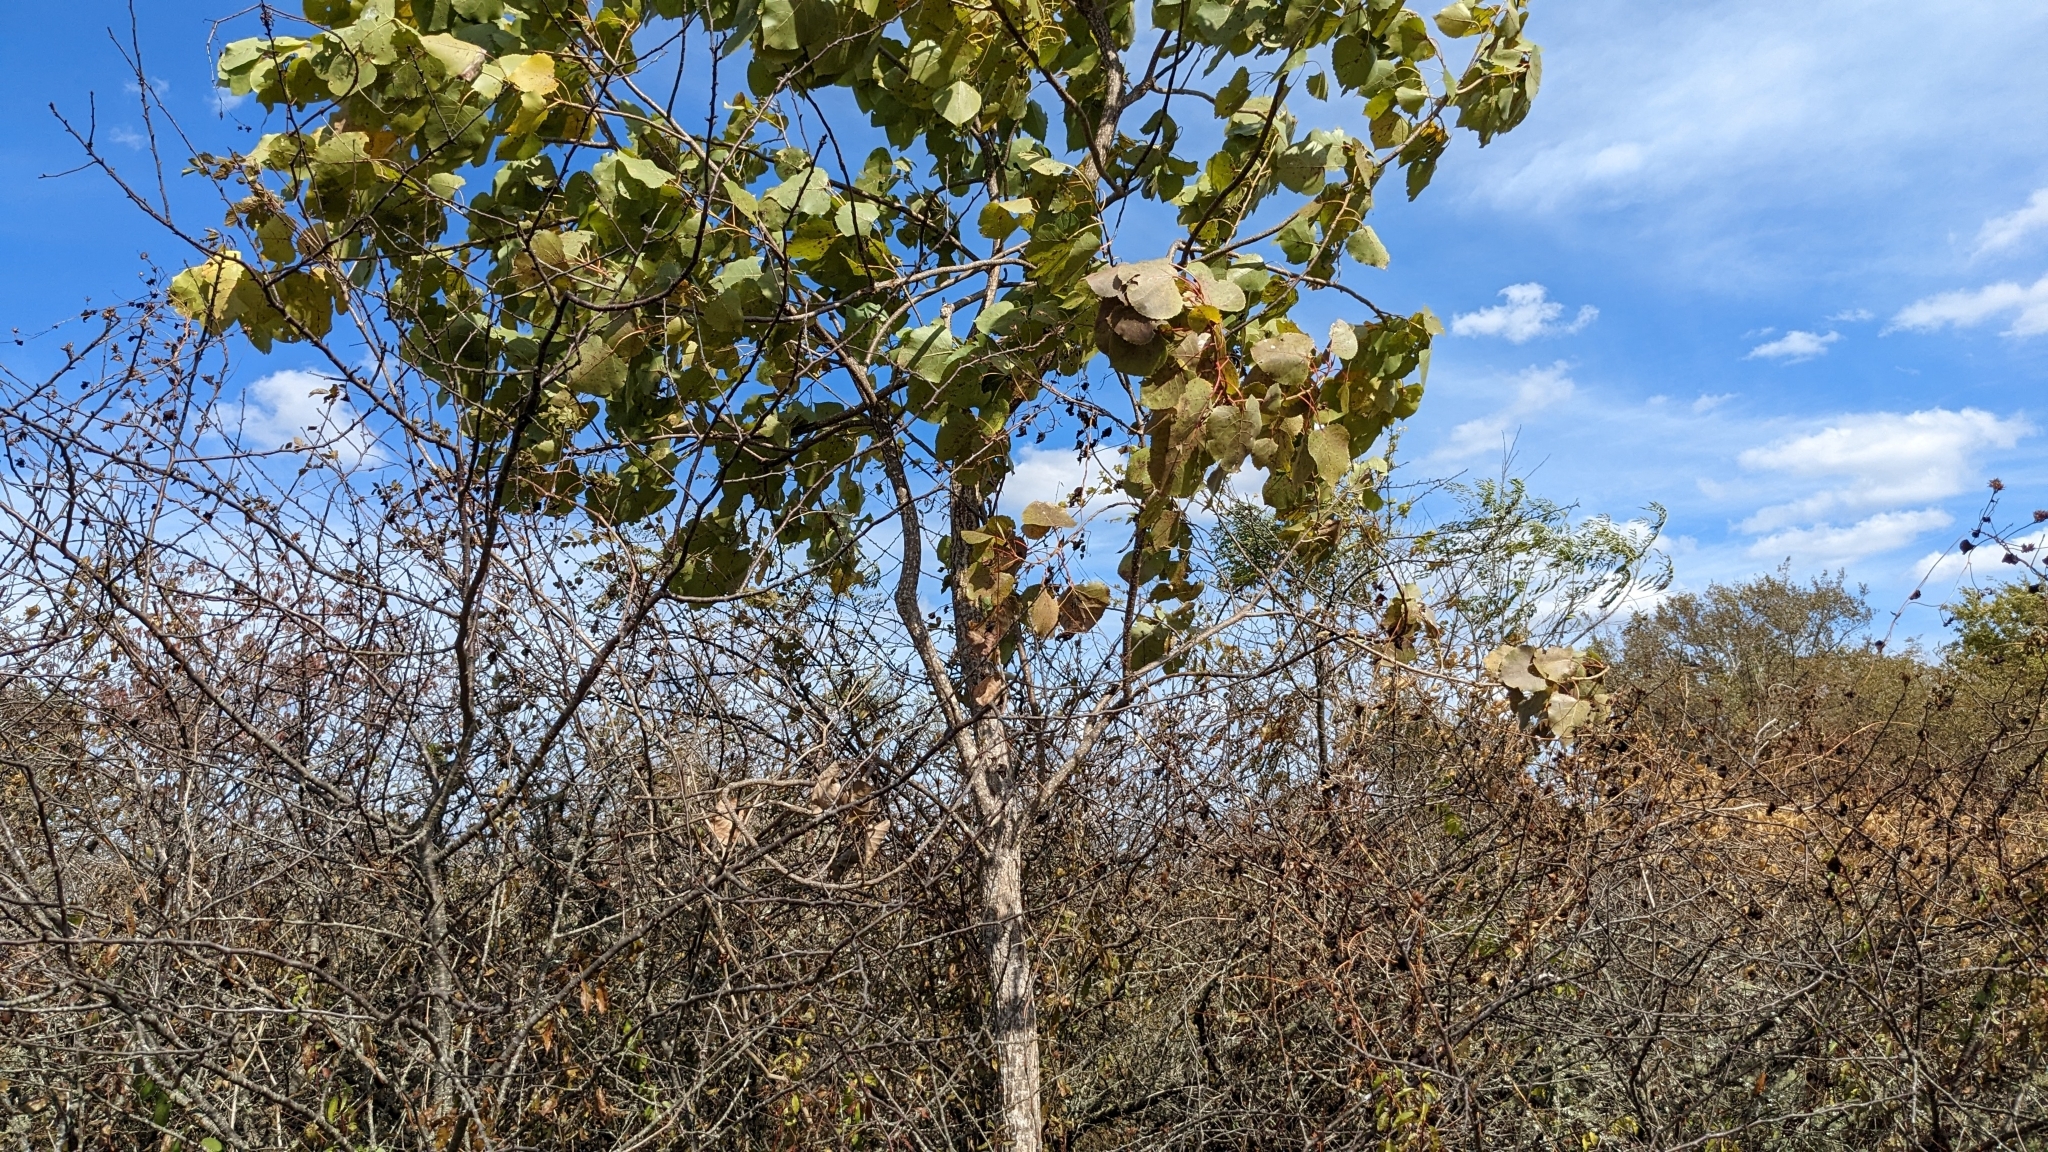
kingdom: Plantae
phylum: Tracheophyta
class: Magnoliopsida
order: Malpighiales
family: Salicaceae
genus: Populus
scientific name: Populus deltoides
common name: Eastern cottonwood
